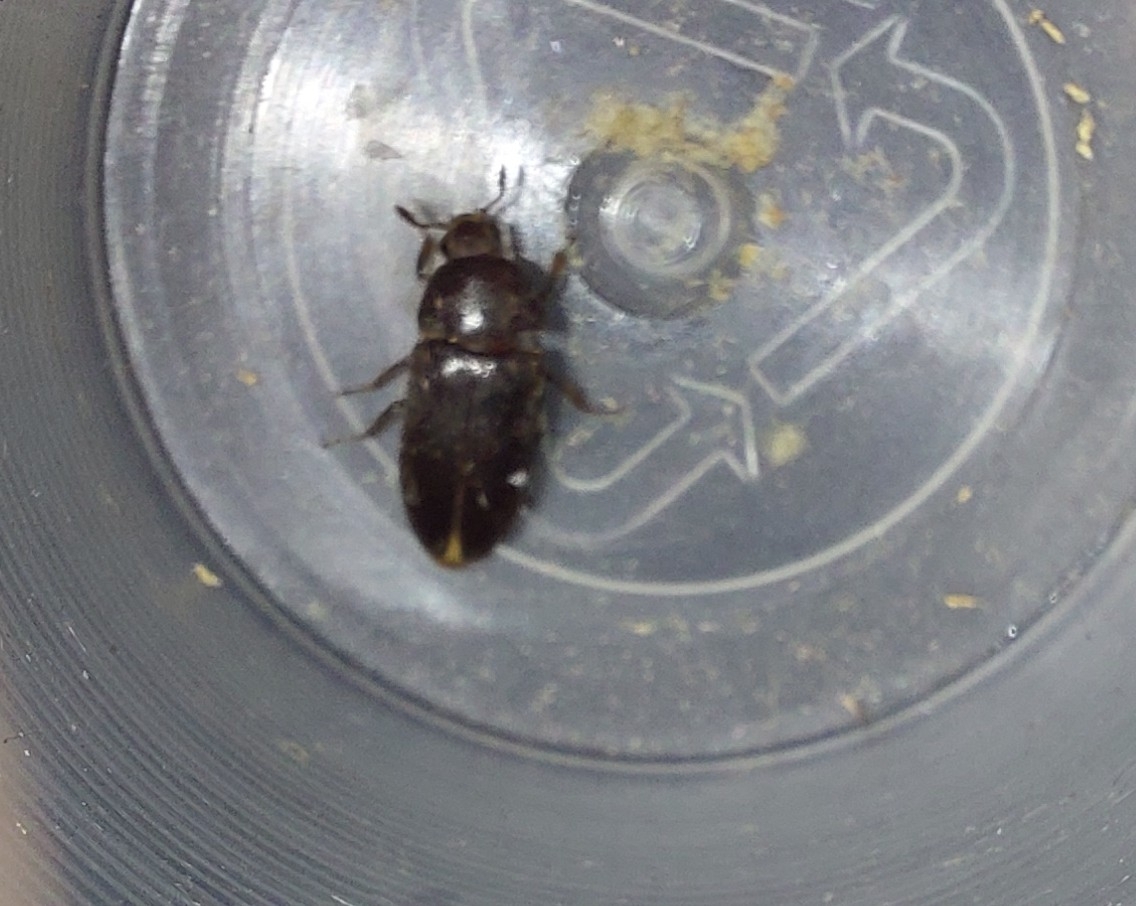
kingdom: Animalia
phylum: Arthropoda
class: Insecta
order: Coleoptera
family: Dermestidae
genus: Dermestes
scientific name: Dermestes bicolor
